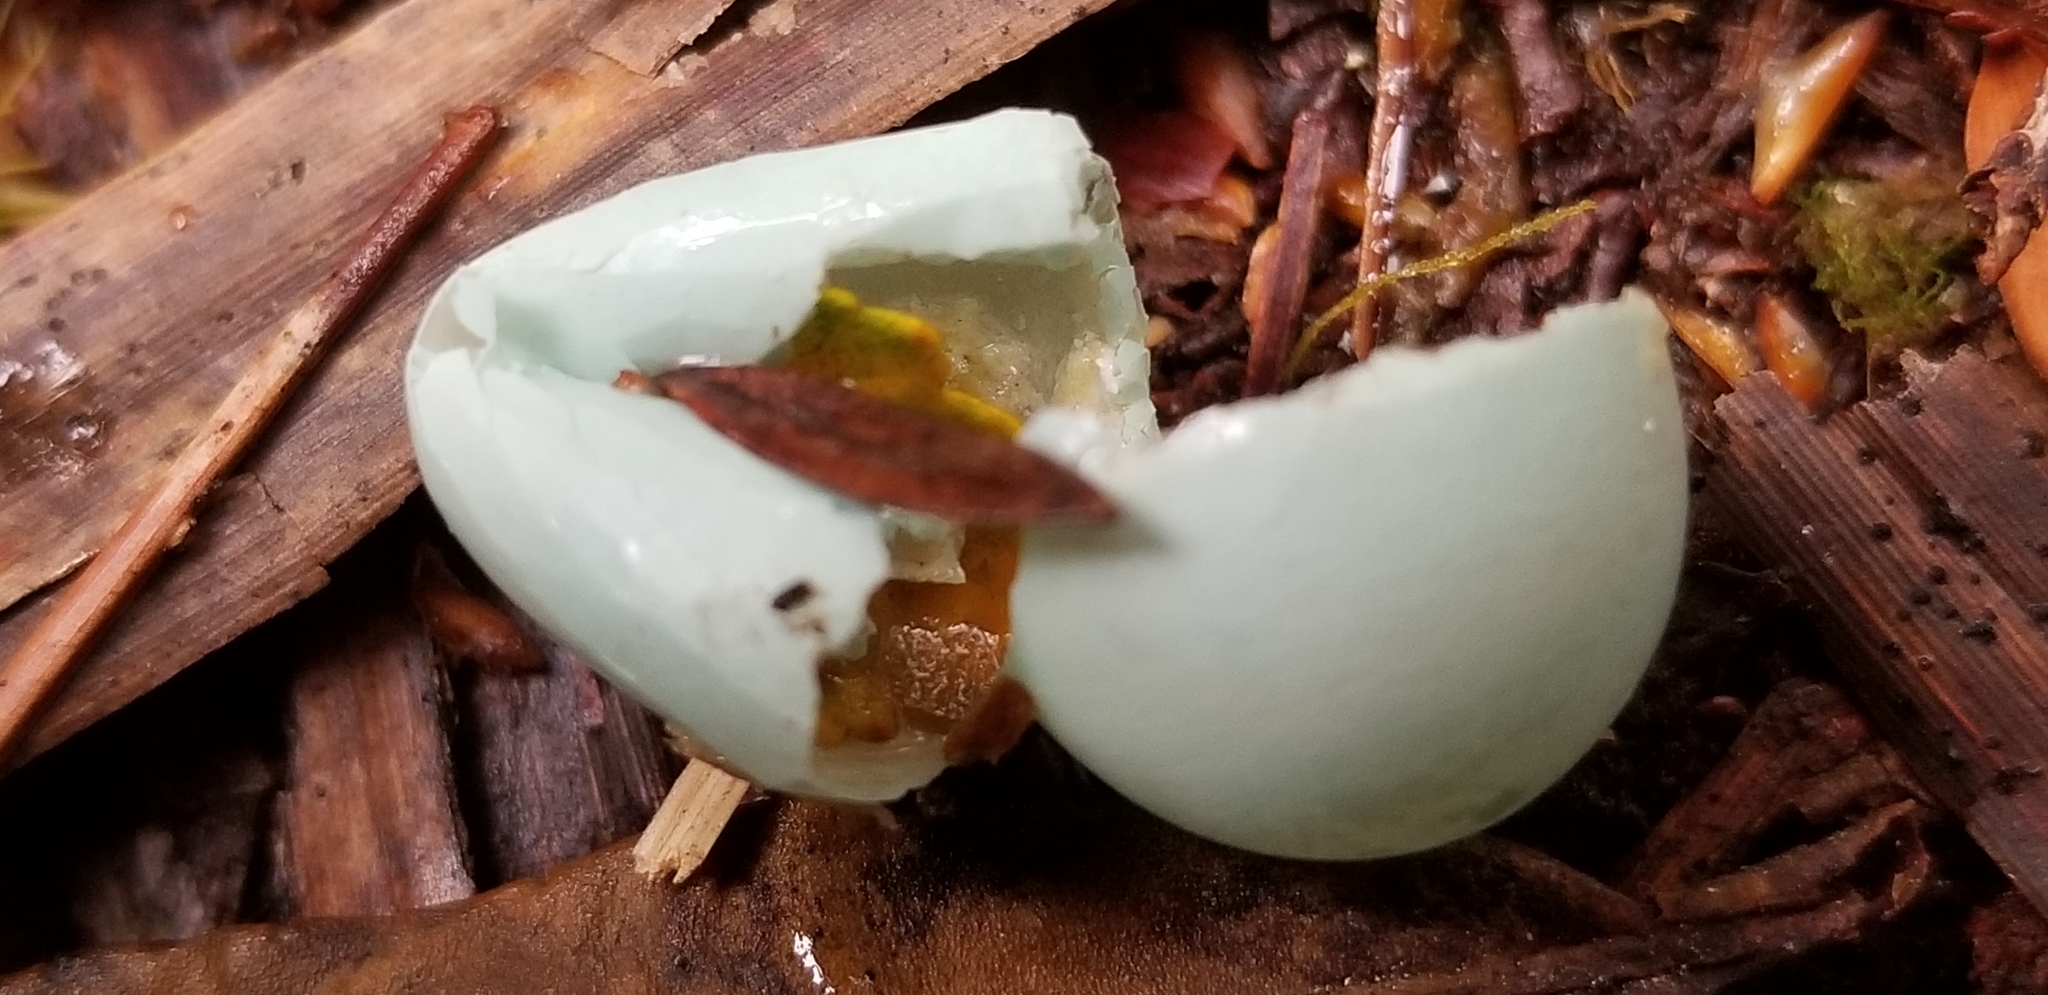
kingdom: Animalia
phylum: Chordata
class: Aves
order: Passeriformes
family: Sturnidae
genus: Sturnus
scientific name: Sturnus vulgaris
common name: Common starling
